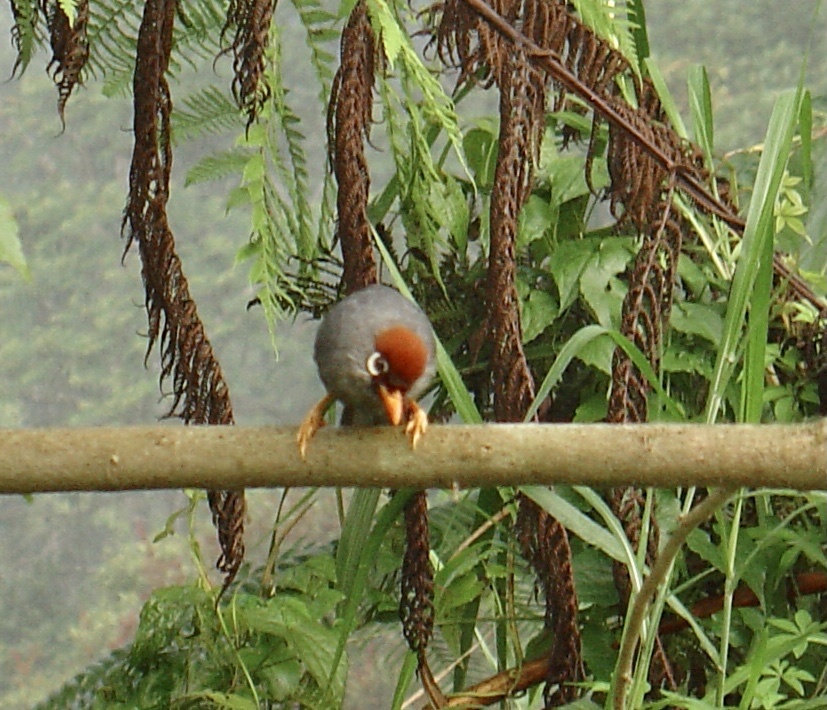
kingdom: Animalia
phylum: Chordata
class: Aves
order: Passeriformes
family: Leiothrichidae
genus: Garrulax
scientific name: Garrulax mitratus
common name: Chestnut-capped laughingthrush
